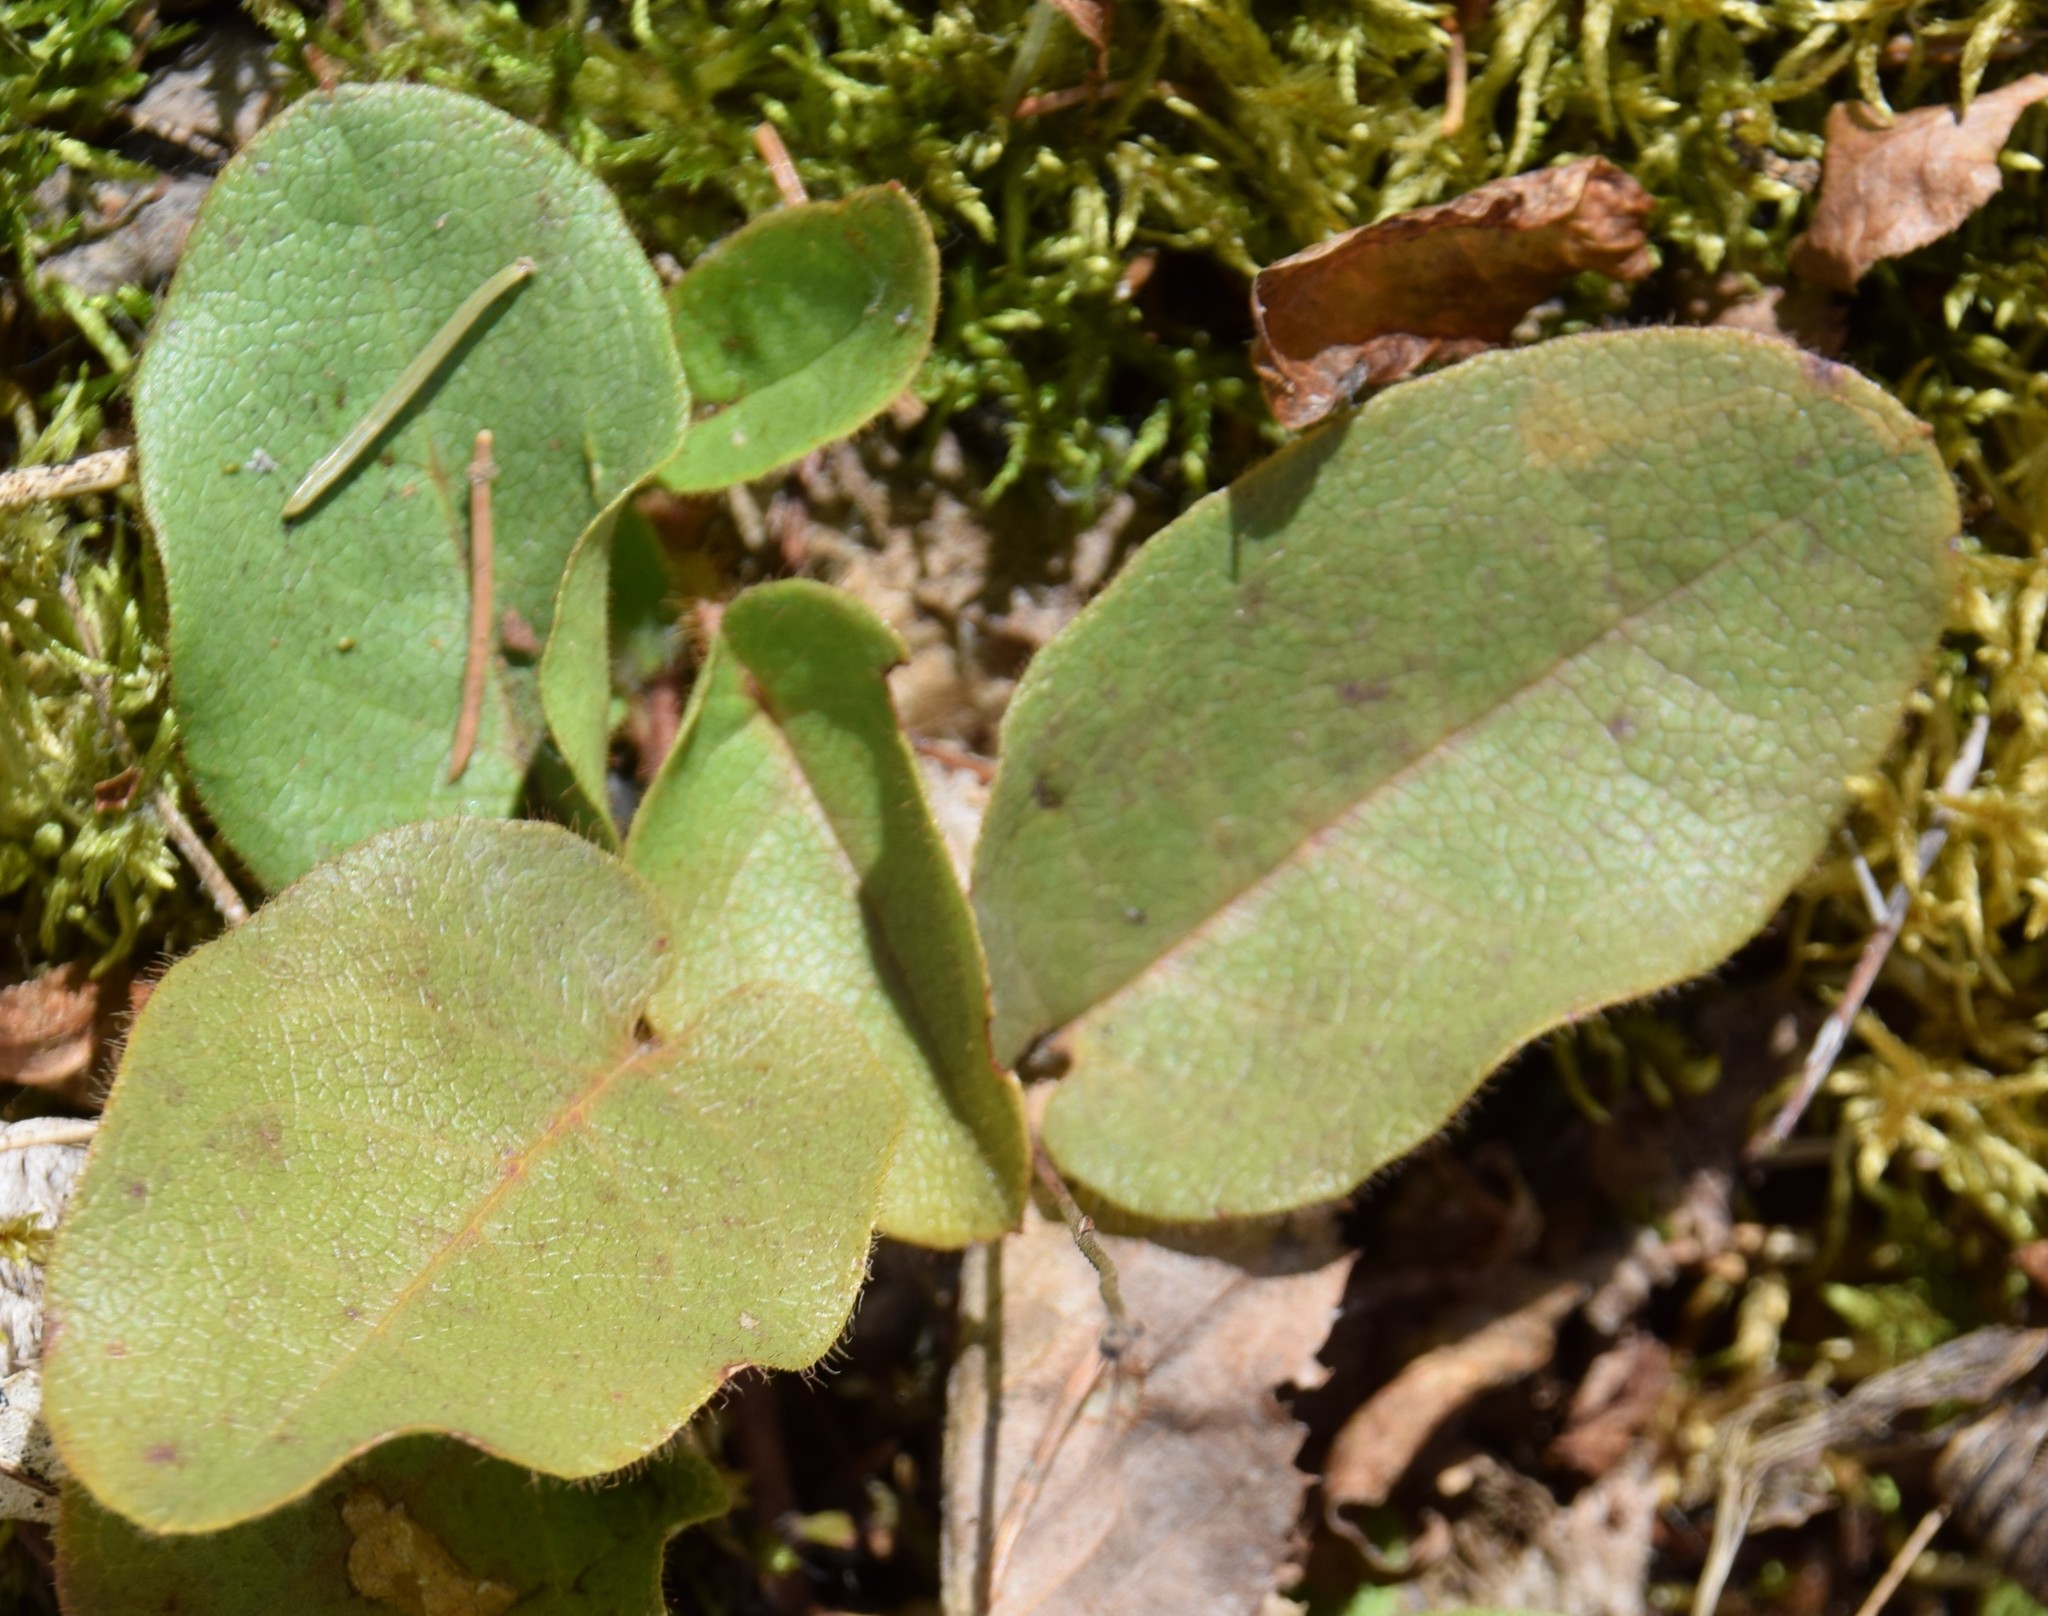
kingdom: Plantae
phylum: Tracheophyta
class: Magnoliopsida
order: Ericales
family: Ericaceae
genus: Epigaea
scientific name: Epigaea repens
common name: Gravelroot
